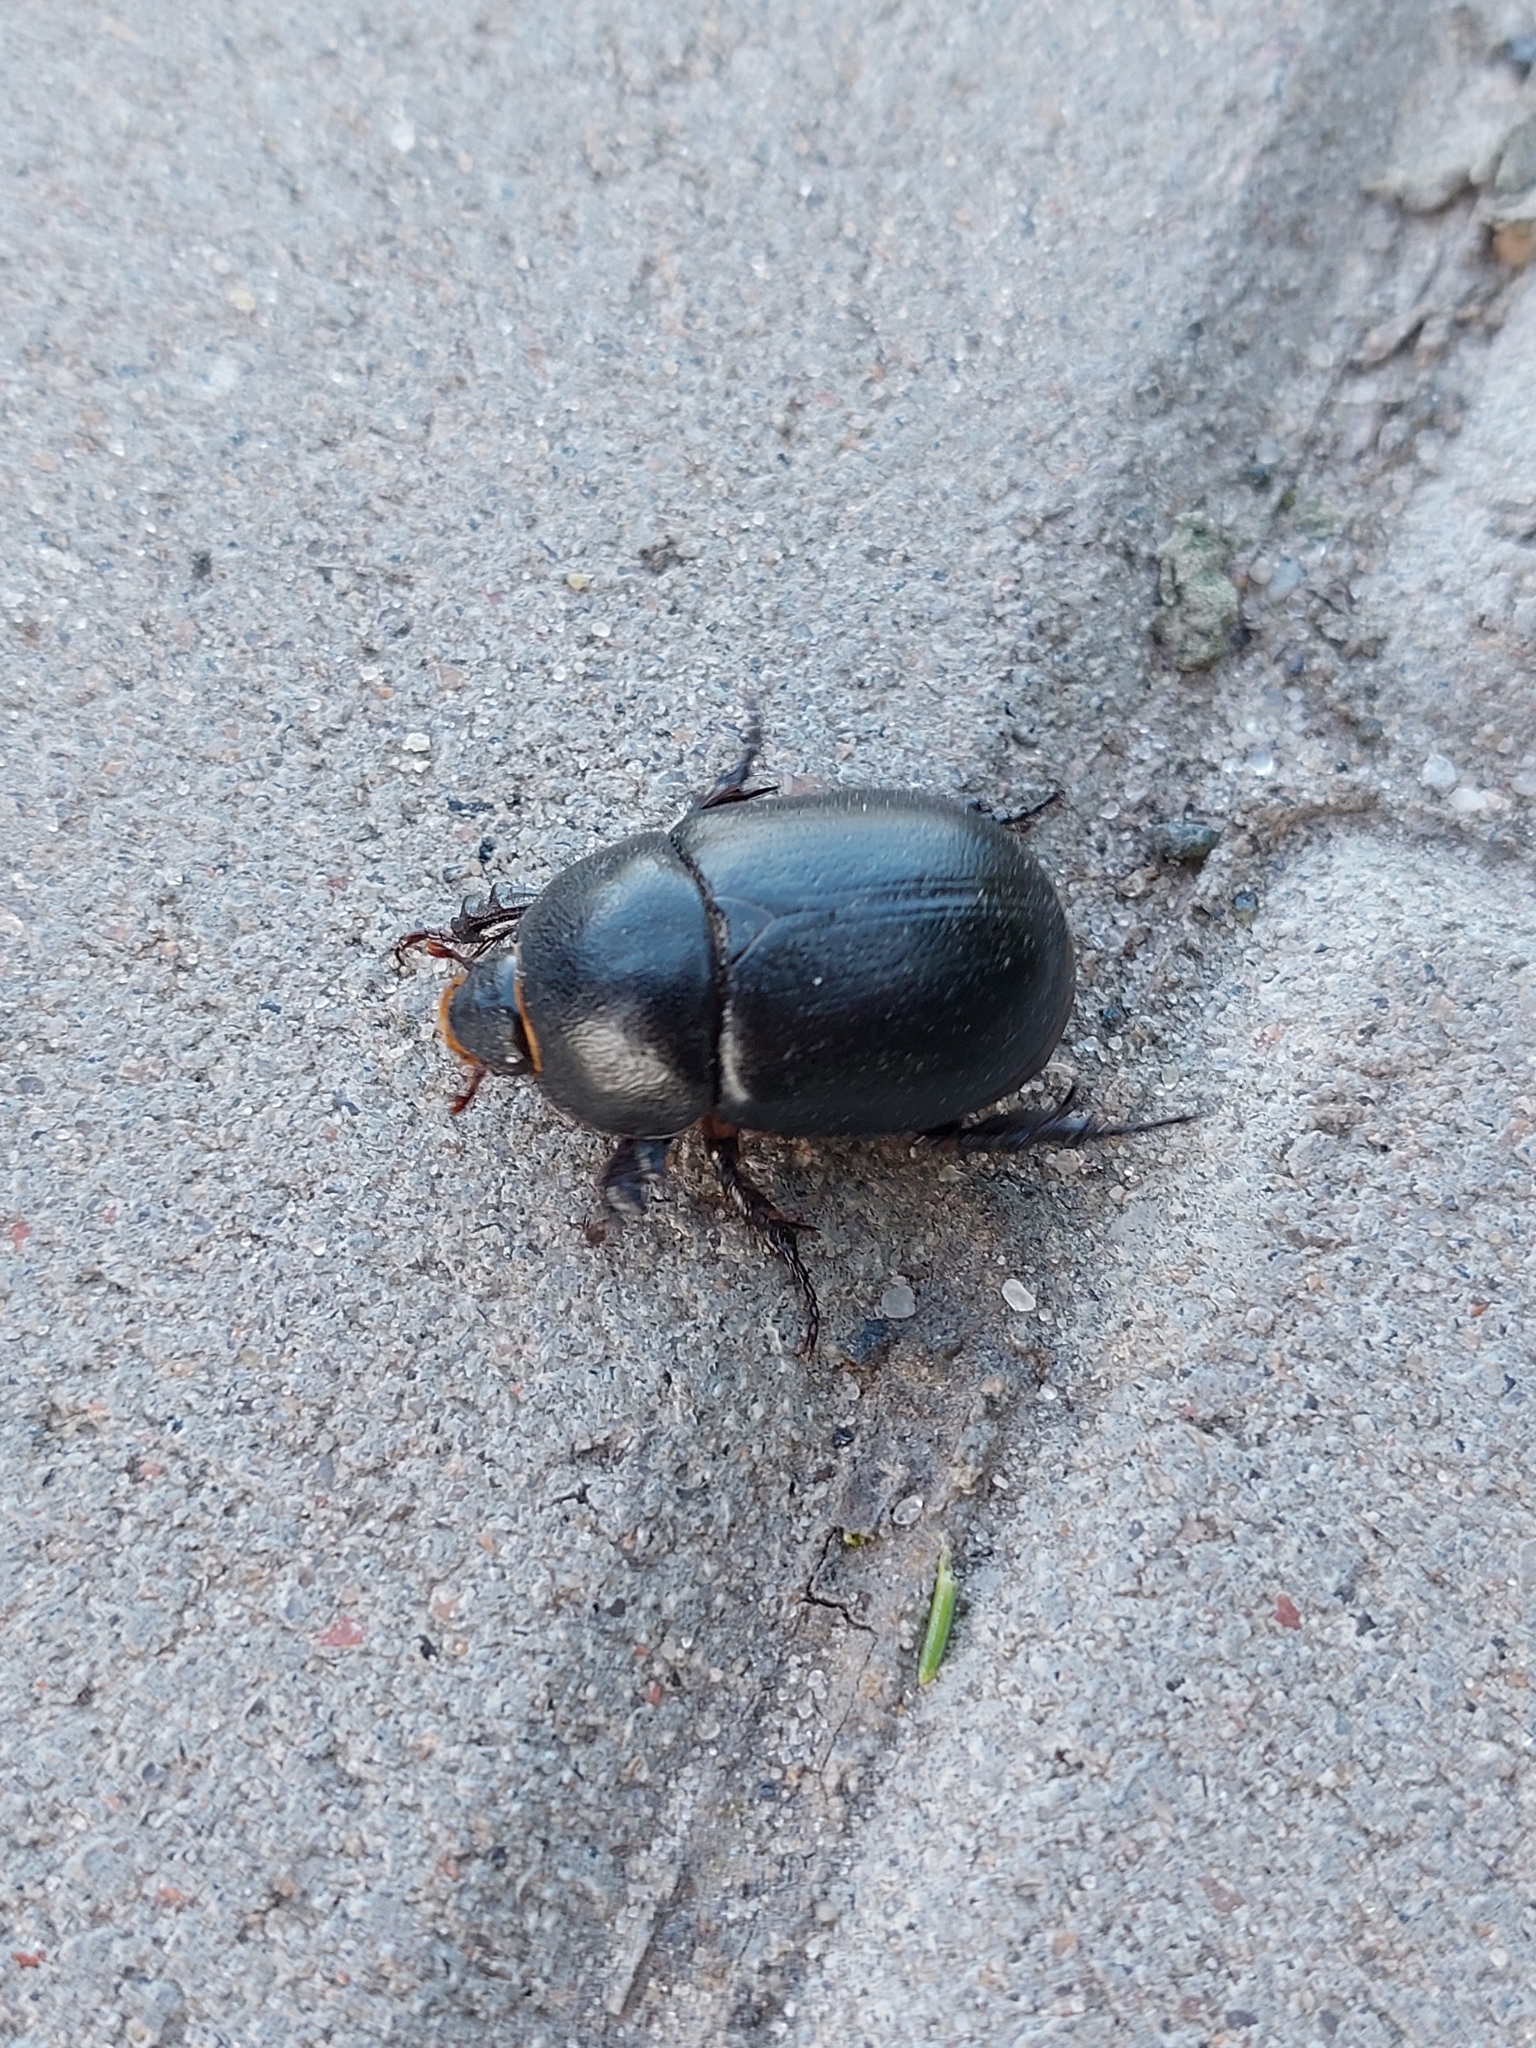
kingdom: Animalia
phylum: Arthropoda
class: Insecta
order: Coleoptera
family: Scarabaeidae
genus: Pentodon
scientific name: Pentodon idiota
